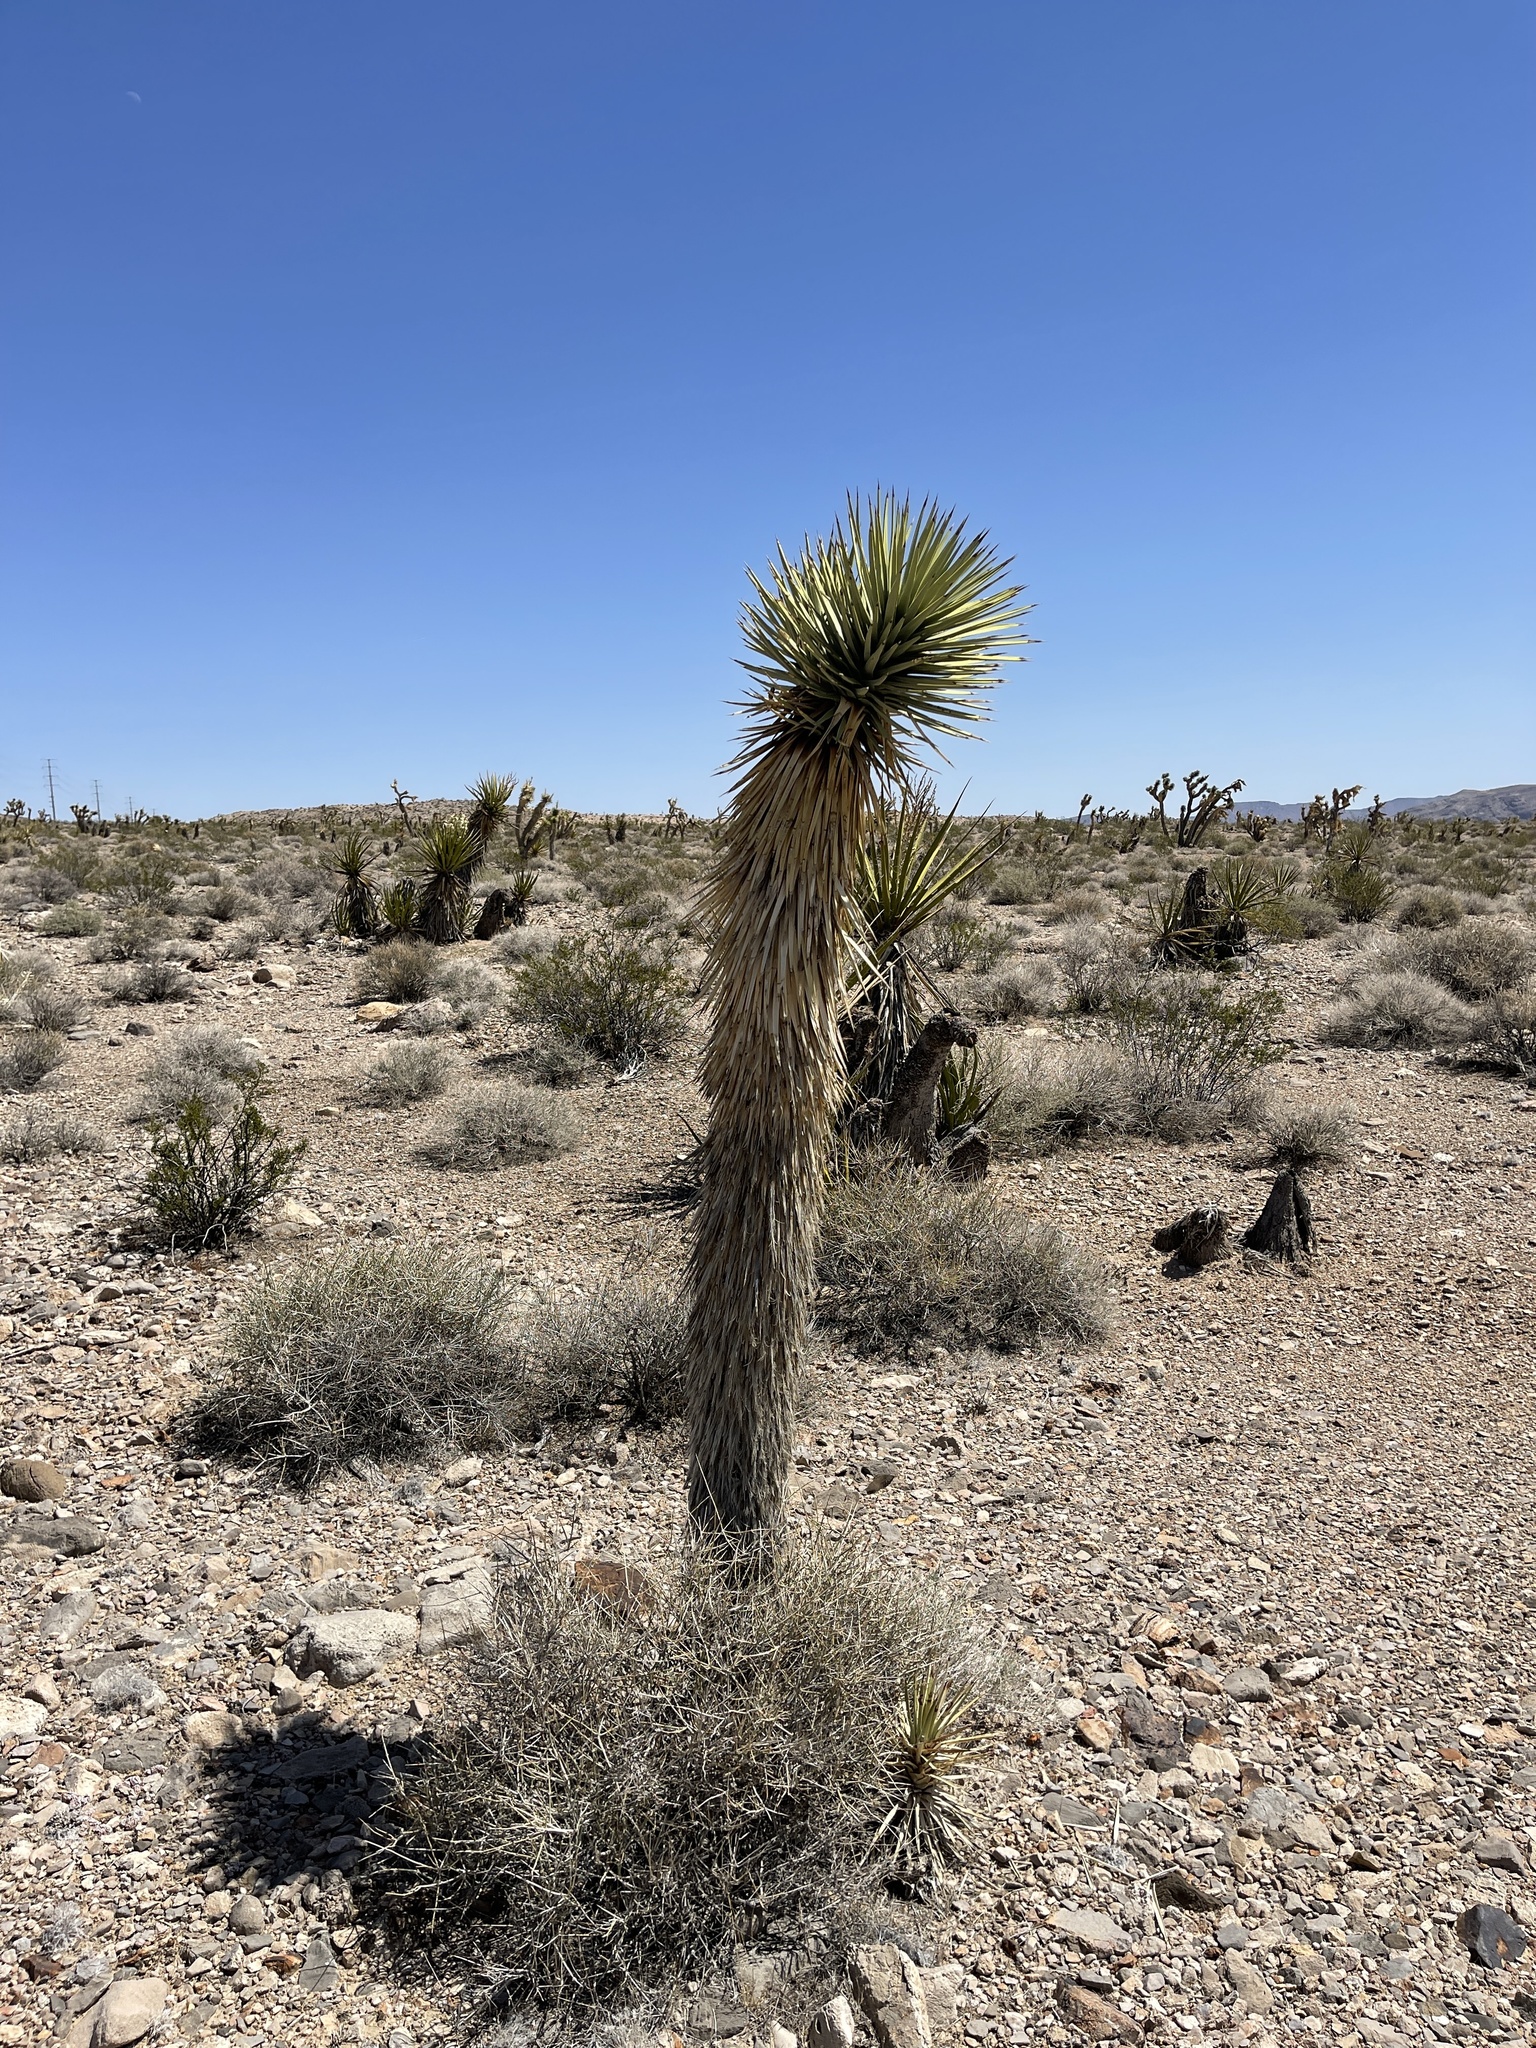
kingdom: Plantae
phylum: Tracheophyta
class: Liliopsida
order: Asparagales
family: Asparagaceae
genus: Yucca
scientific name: Yucca brevifolia
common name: Joshua tree
